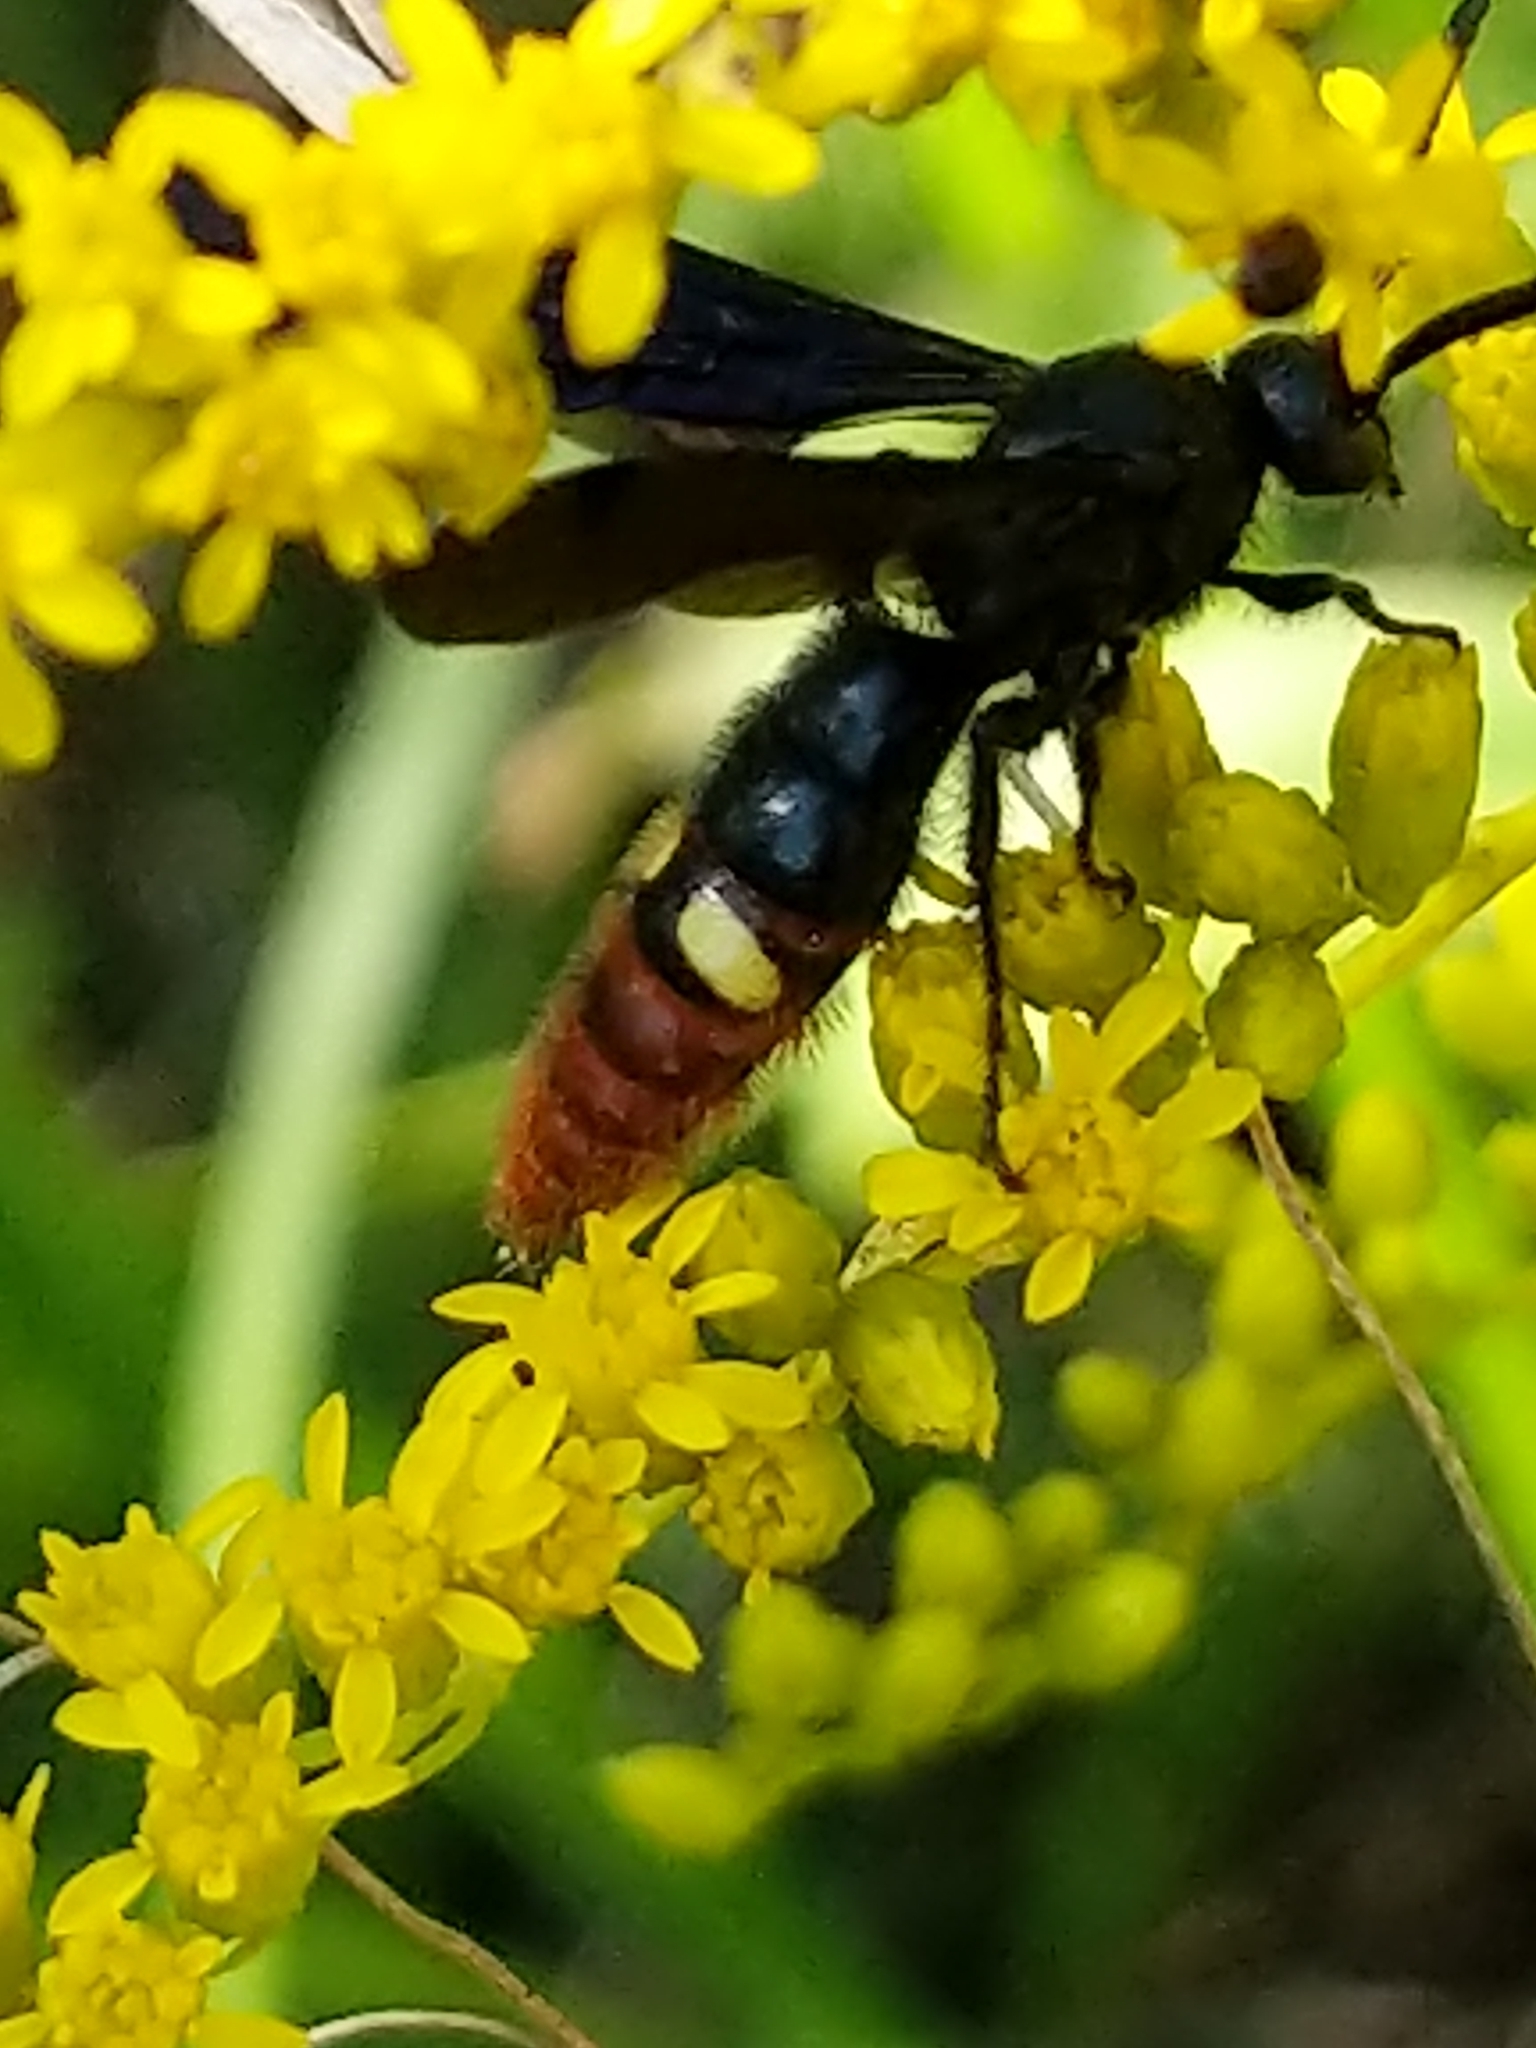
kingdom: Animalia
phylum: Arthropoda
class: Insecta
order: Hymenoptera
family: Scoliidae
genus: Scolia
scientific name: Scolia dubia
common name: Blue-winged scoliid wasp
